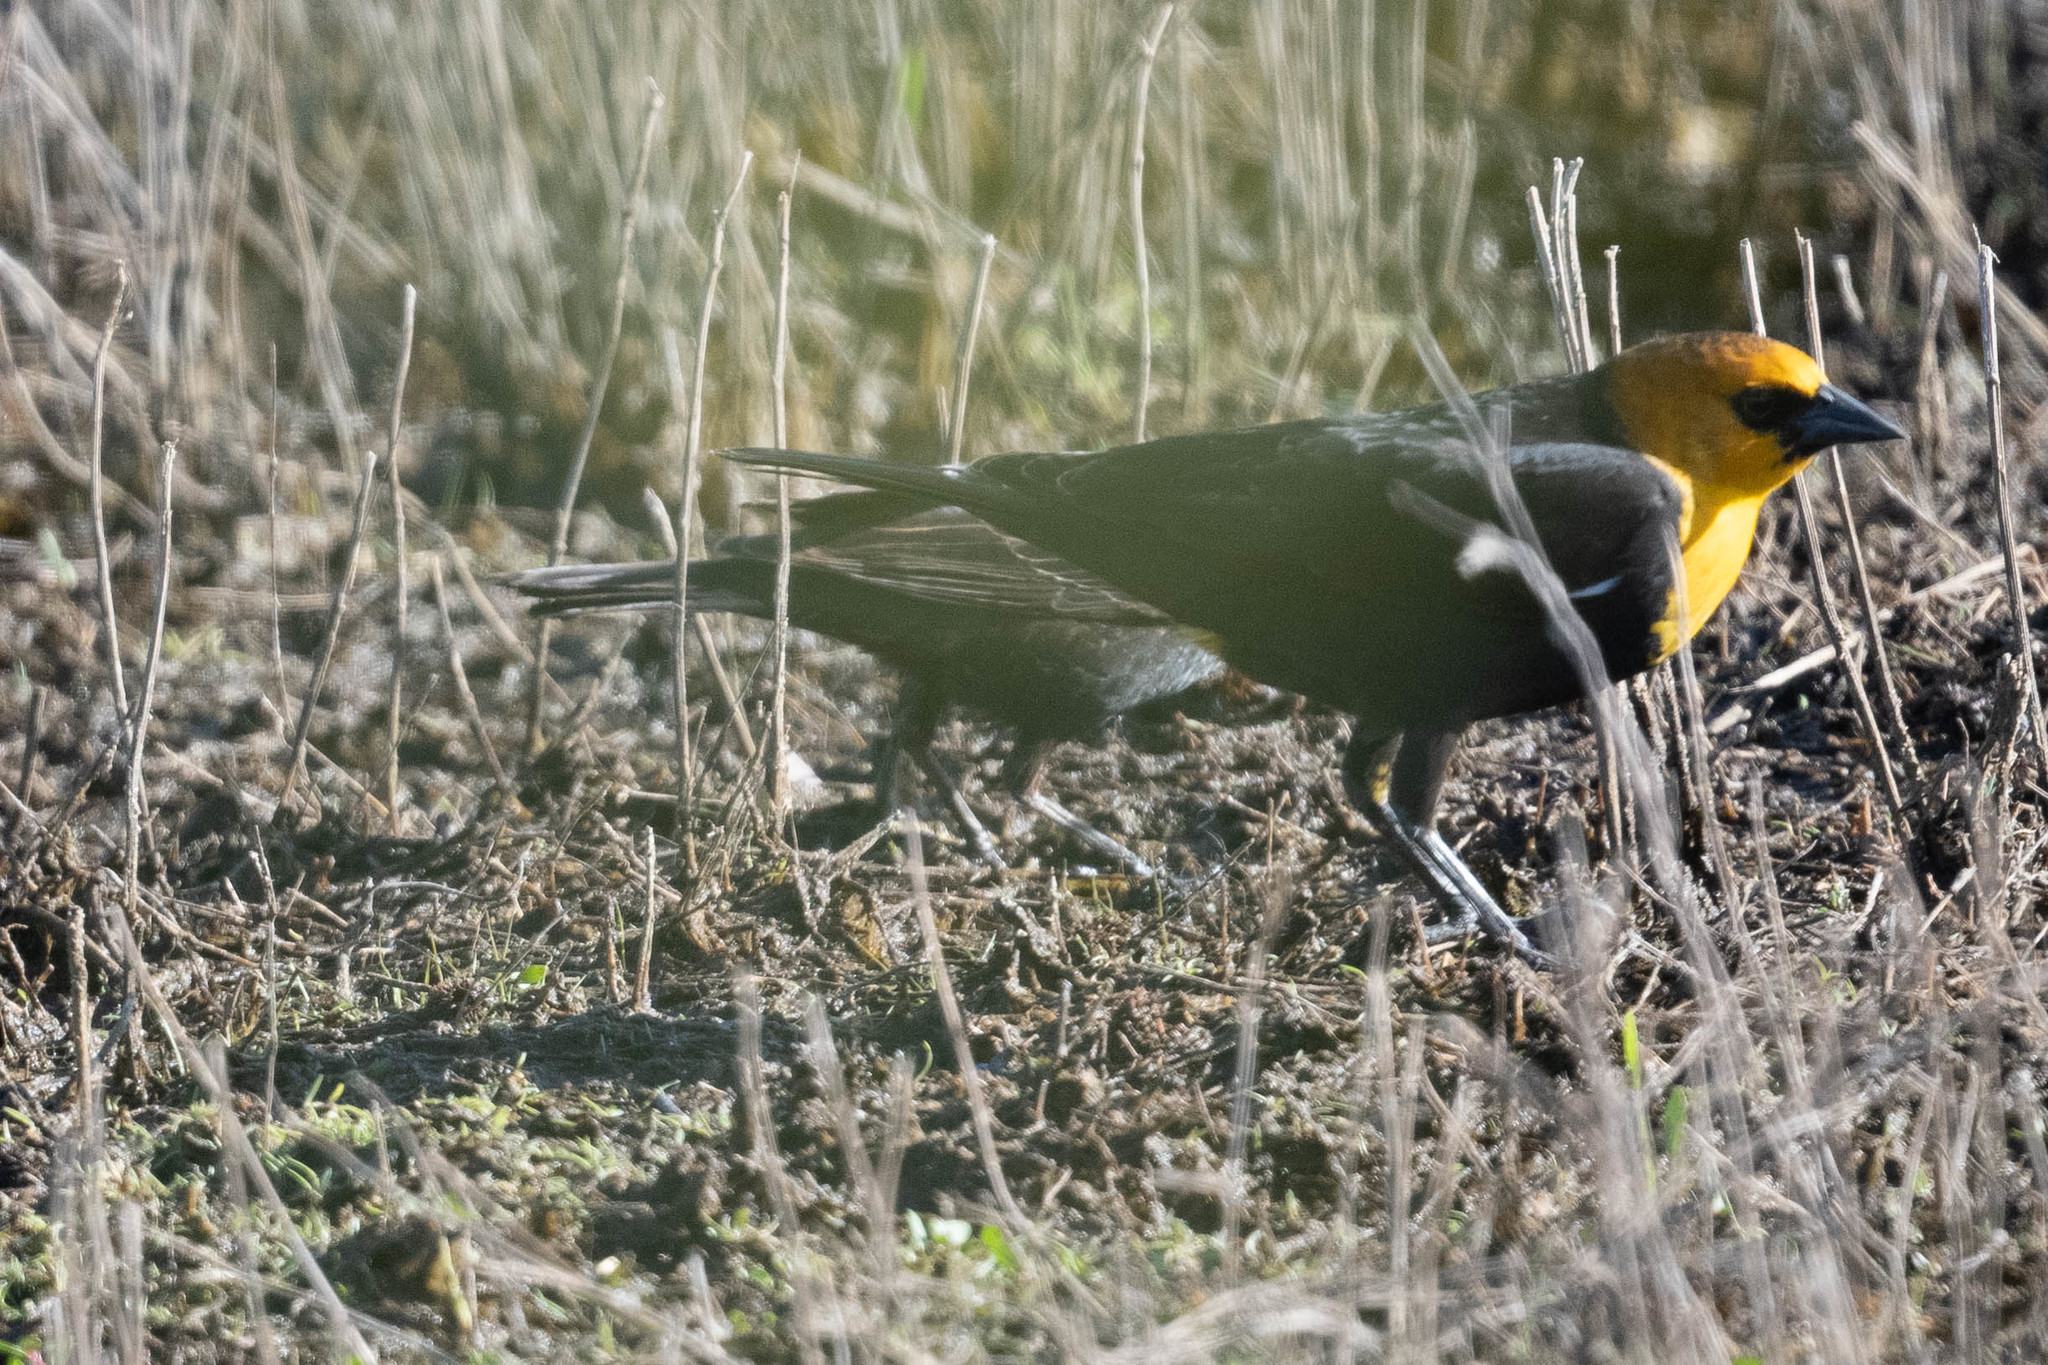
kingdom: Animalia
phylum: Chordata
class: Aves
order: Passeriformes
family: Icteridae
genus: Xanthocephalus
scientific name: Xanthocephalus xanthocephalus
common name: Yellow-headed blackbird
